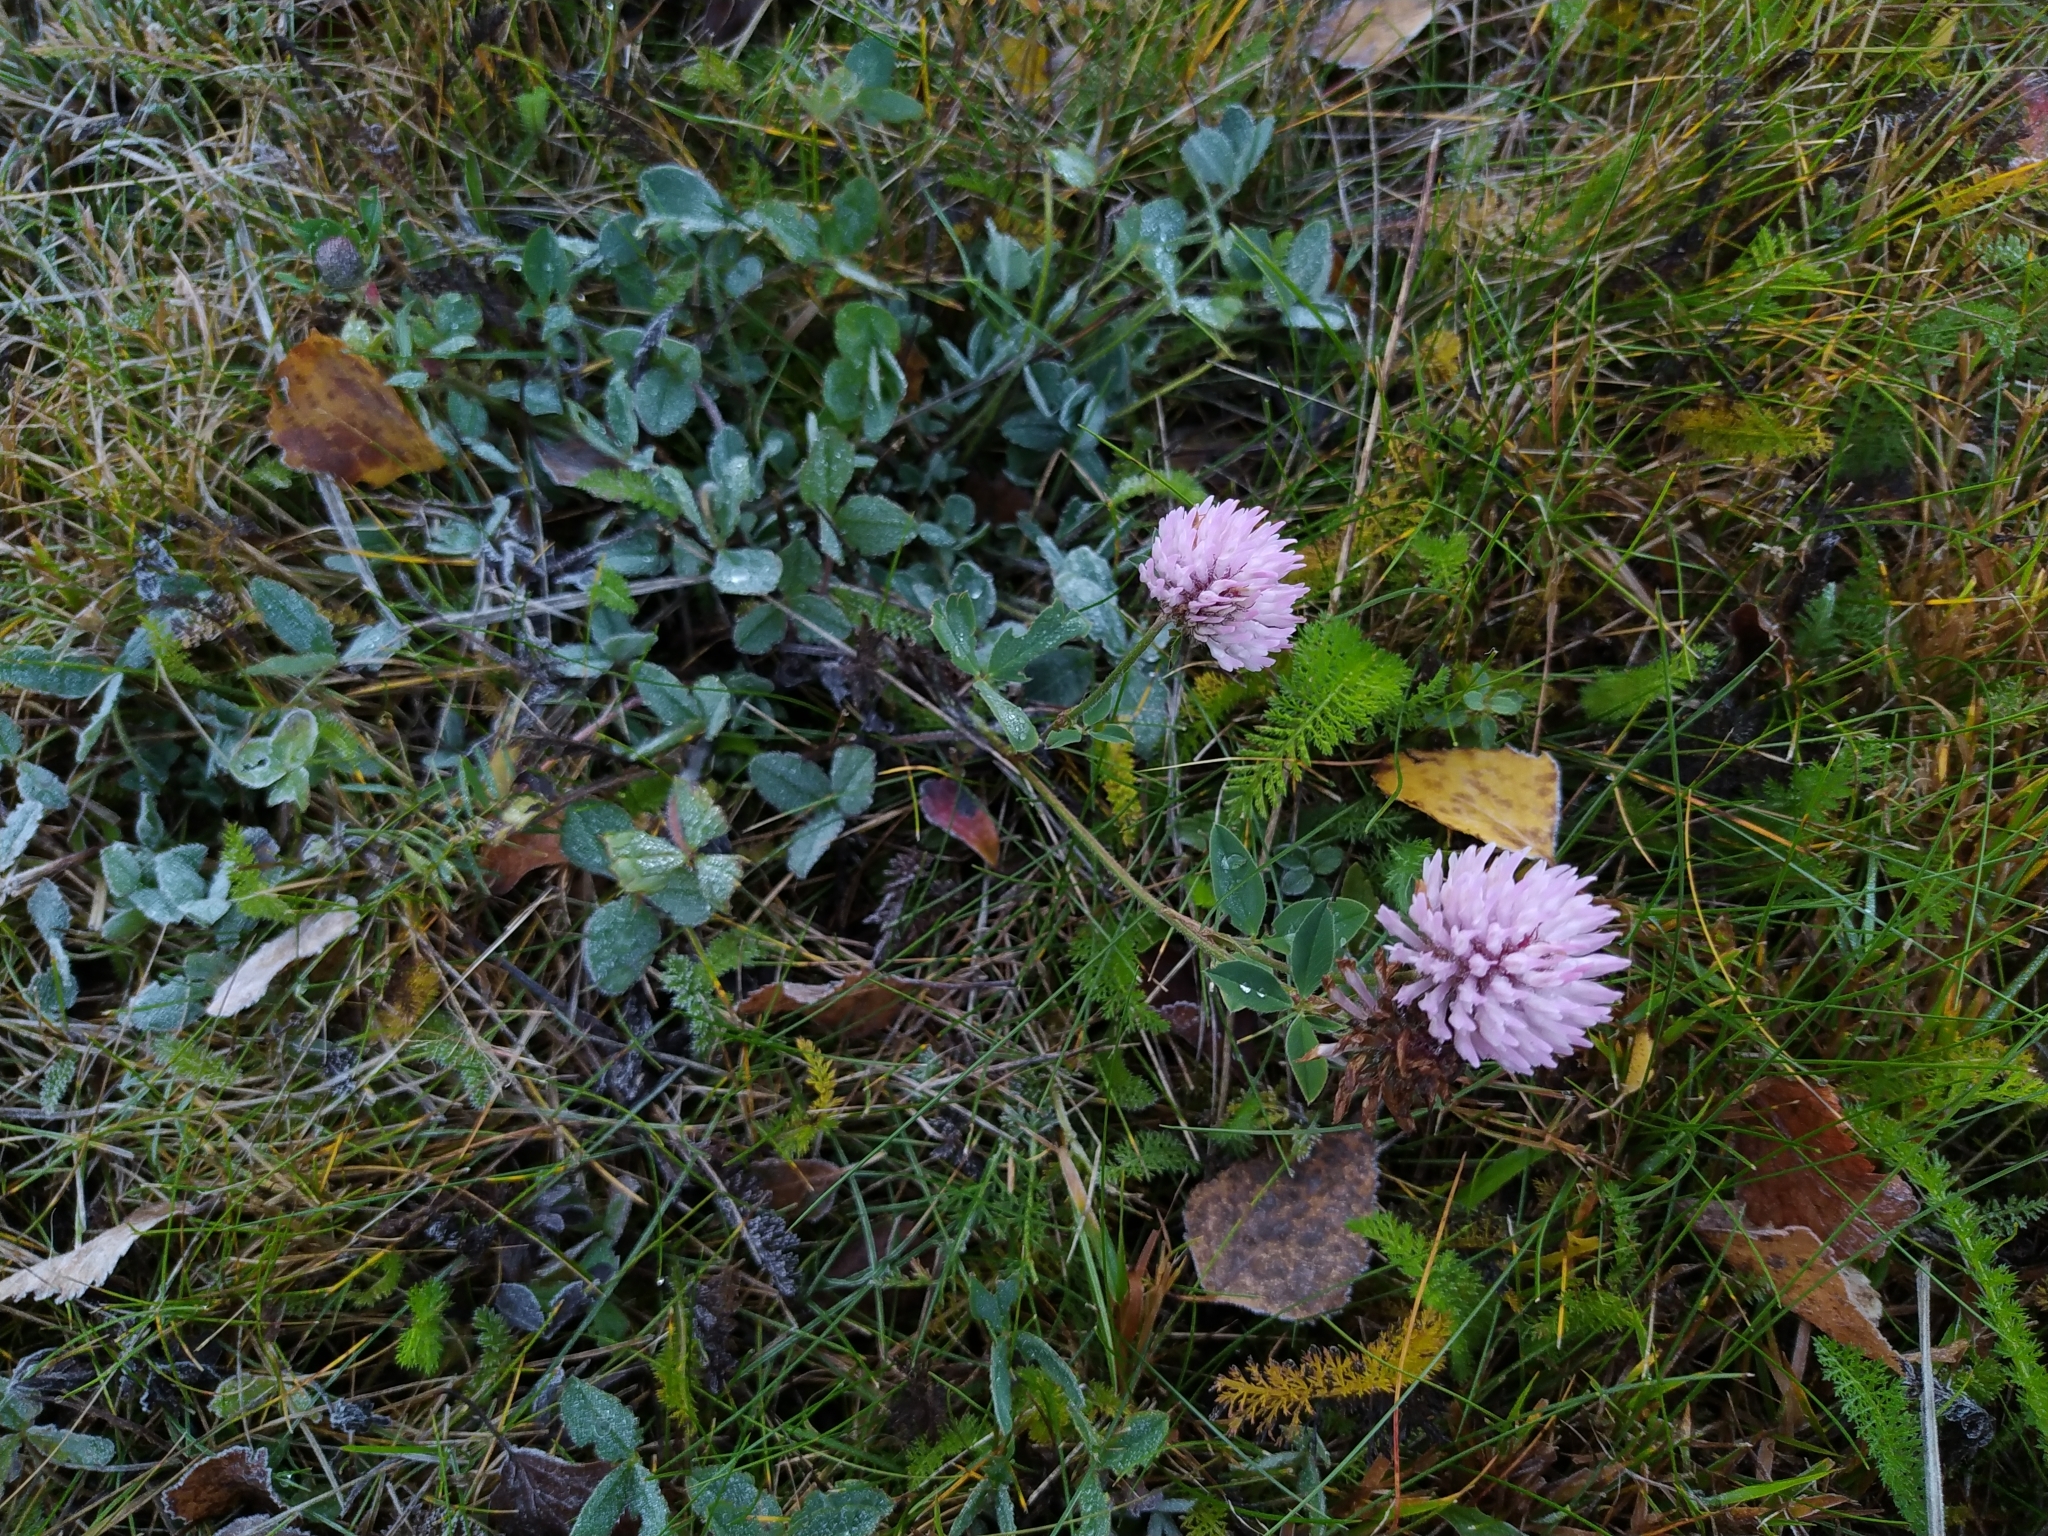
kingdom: Plantae
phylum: Tracheophyta
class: Magnoliopsida
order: Fabales
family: Fabaceae
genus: Trifolium
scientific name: Trifolium pratense
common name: Red clover
